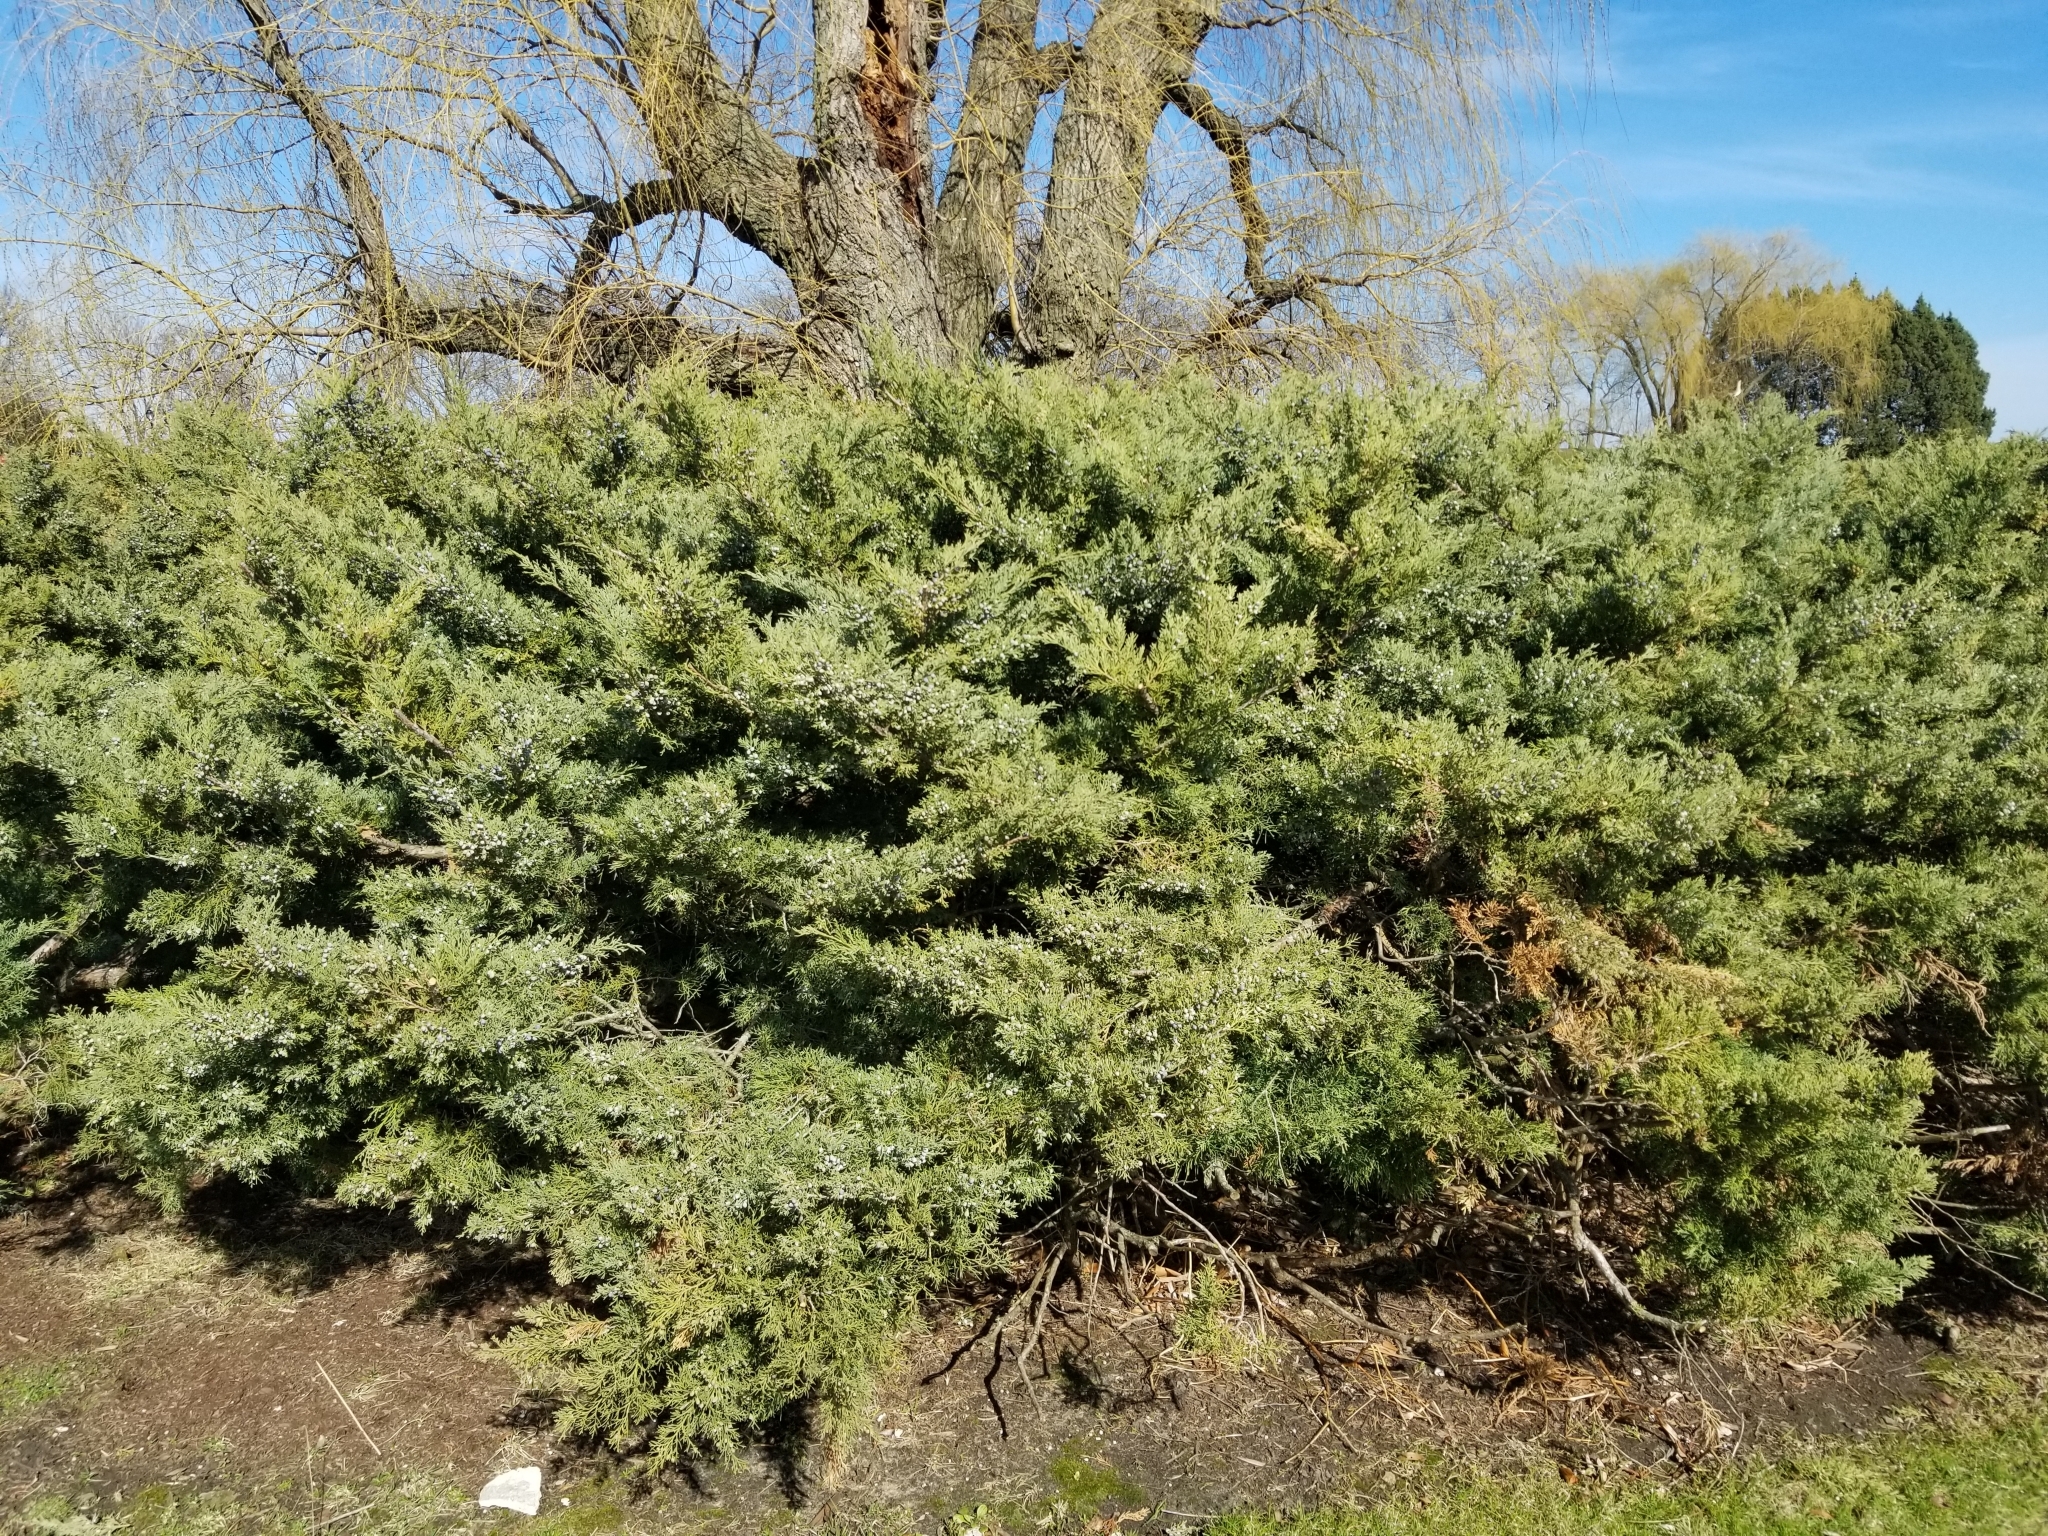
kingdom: Plantae
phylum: Tracheophyta
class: Pinopsida
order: Pinales
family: Cupressaceae
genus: Juniperus
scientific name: Juniperus virginiana
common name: Red juniper
